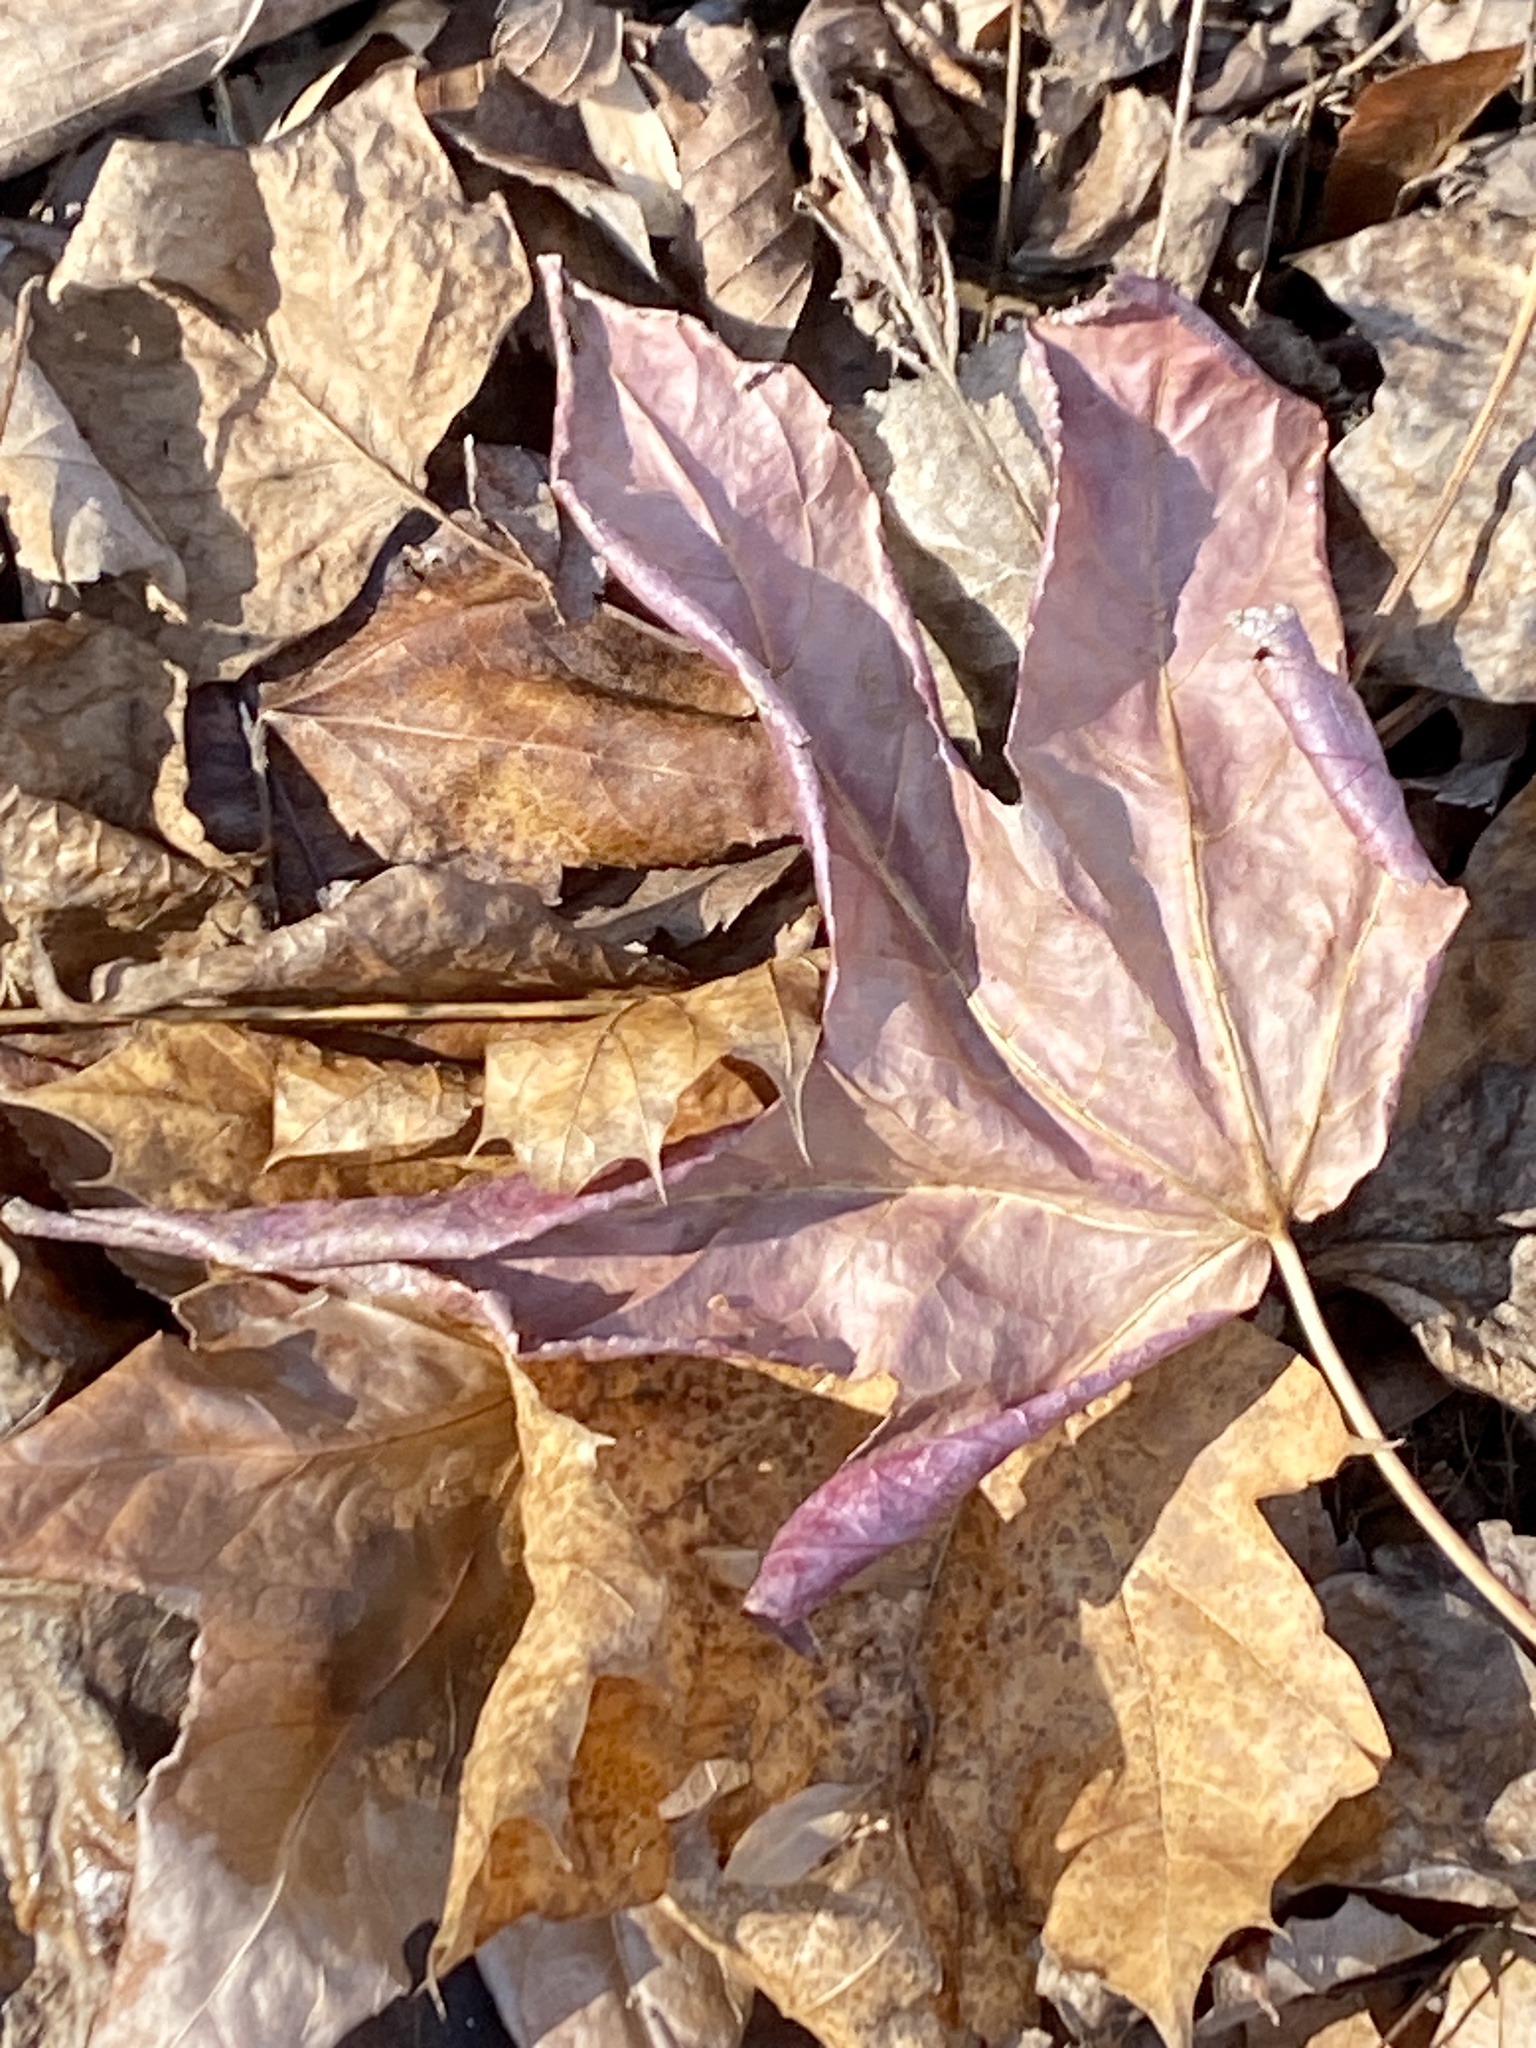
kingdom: Plantae
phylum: Tracheophyta
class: Magnoliopsida
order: Saxifragales
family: Altingiaceae
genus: Liquidambar
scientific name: Liquidambar styraciflua
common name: Sweet gum
